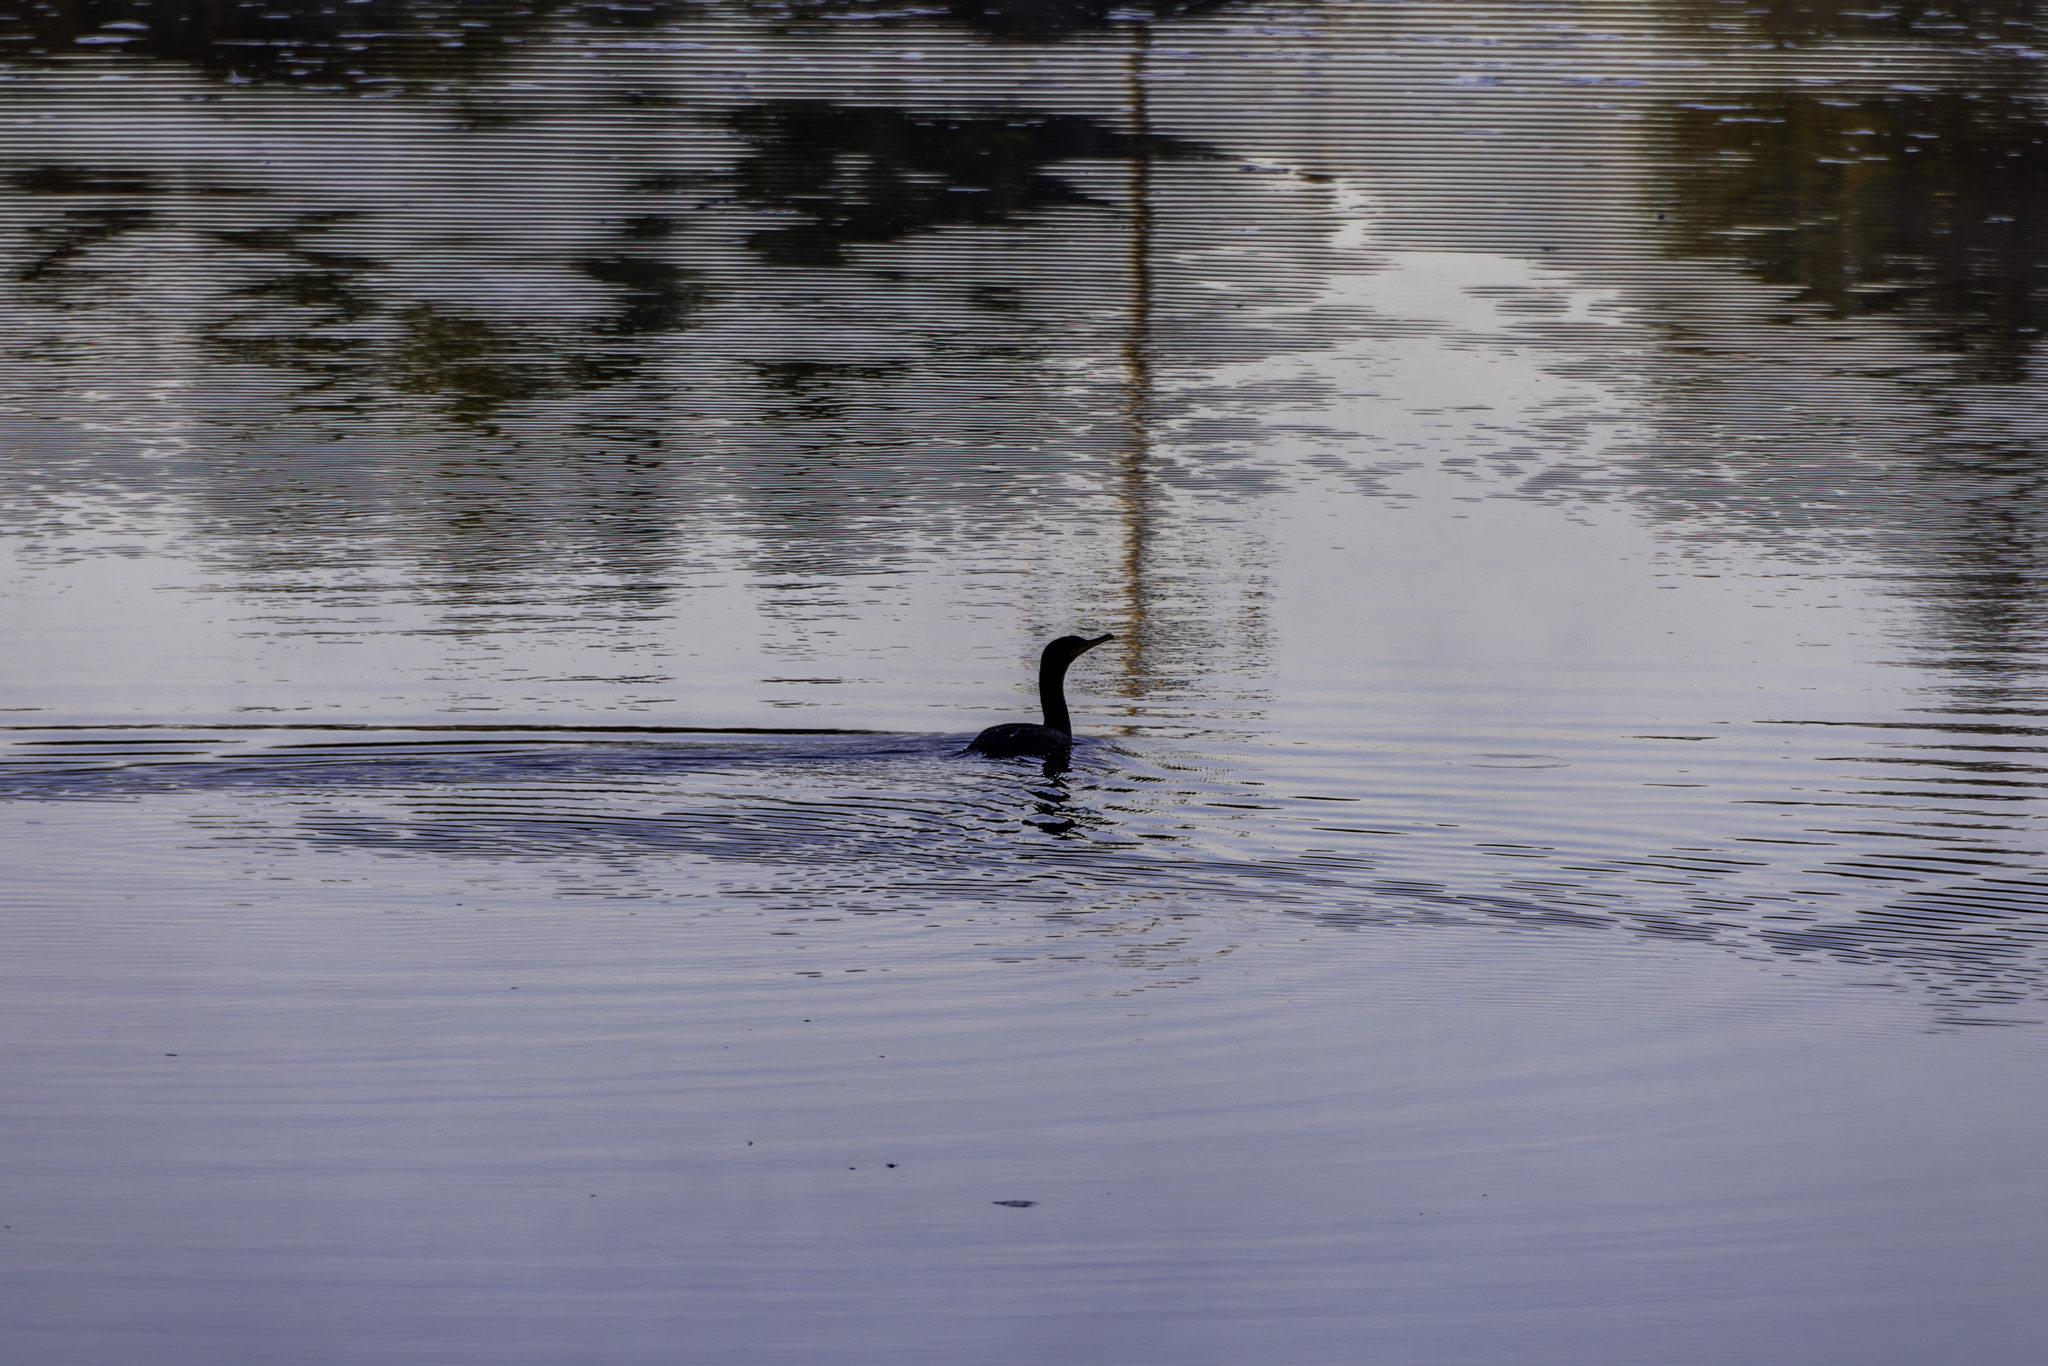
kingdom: Animalia
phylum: Chordata
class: Aves
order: Suliformes
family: Phalacrocoracidae
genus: Phalacrocorax
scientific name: Phalacrocorax auritus
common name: Double-crested cormorant
